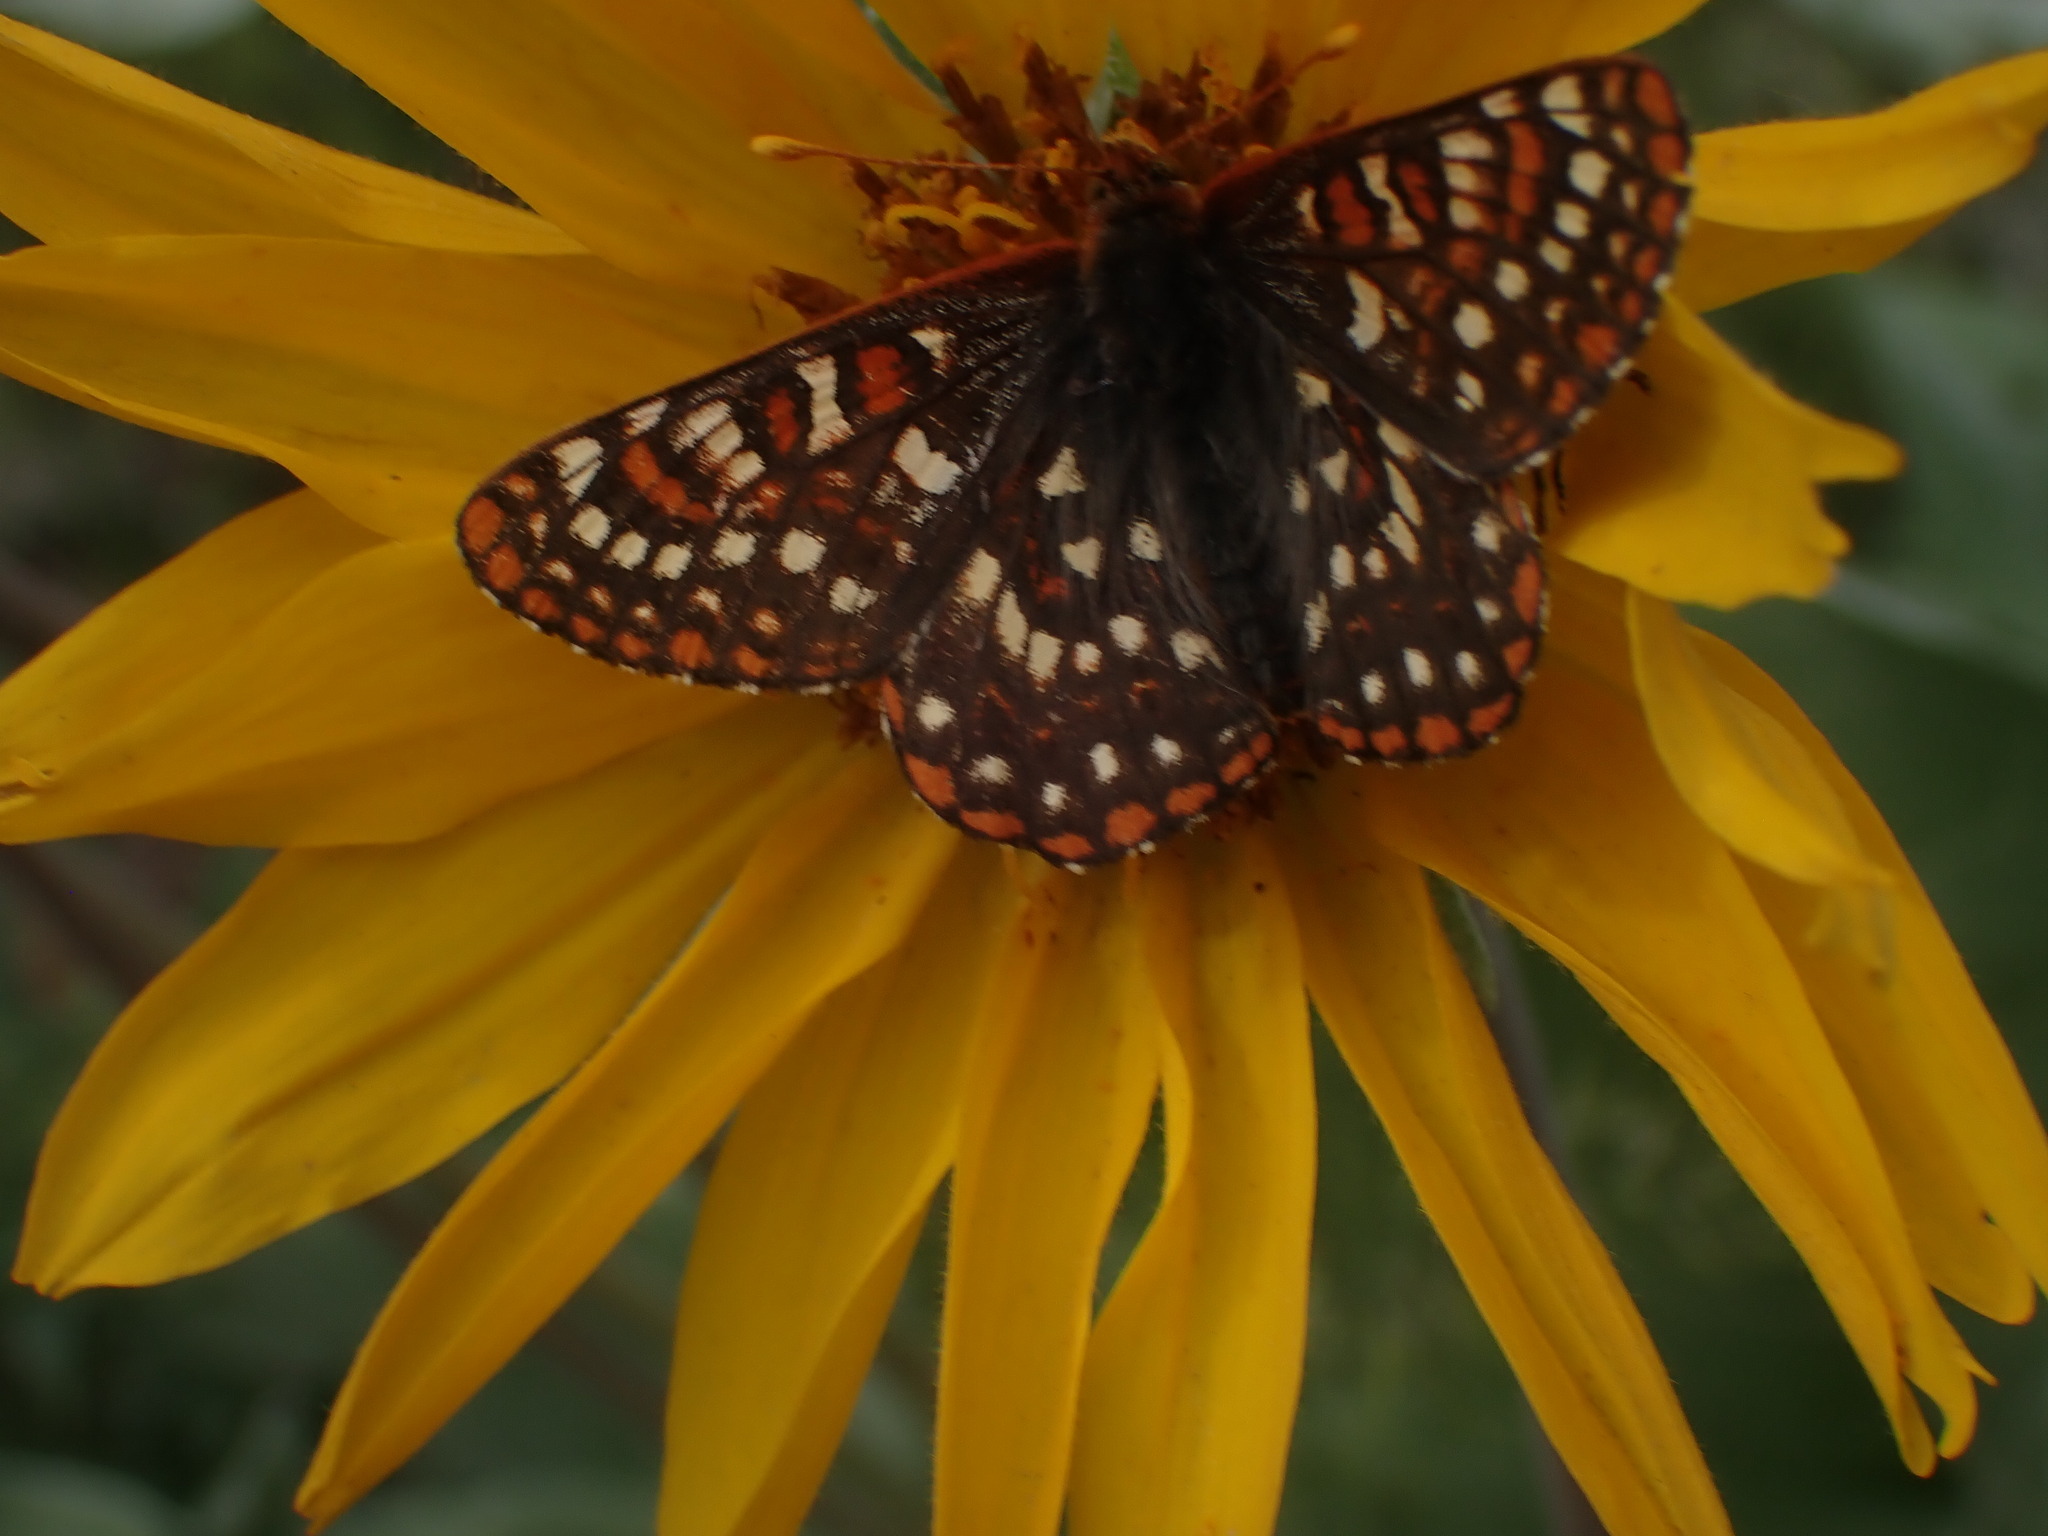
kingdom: Animalia
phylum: Arthropoda
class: Insecta
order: Lepidoptera
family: Nymphalidae
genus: Occidryas
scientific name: Occidryas anicia
